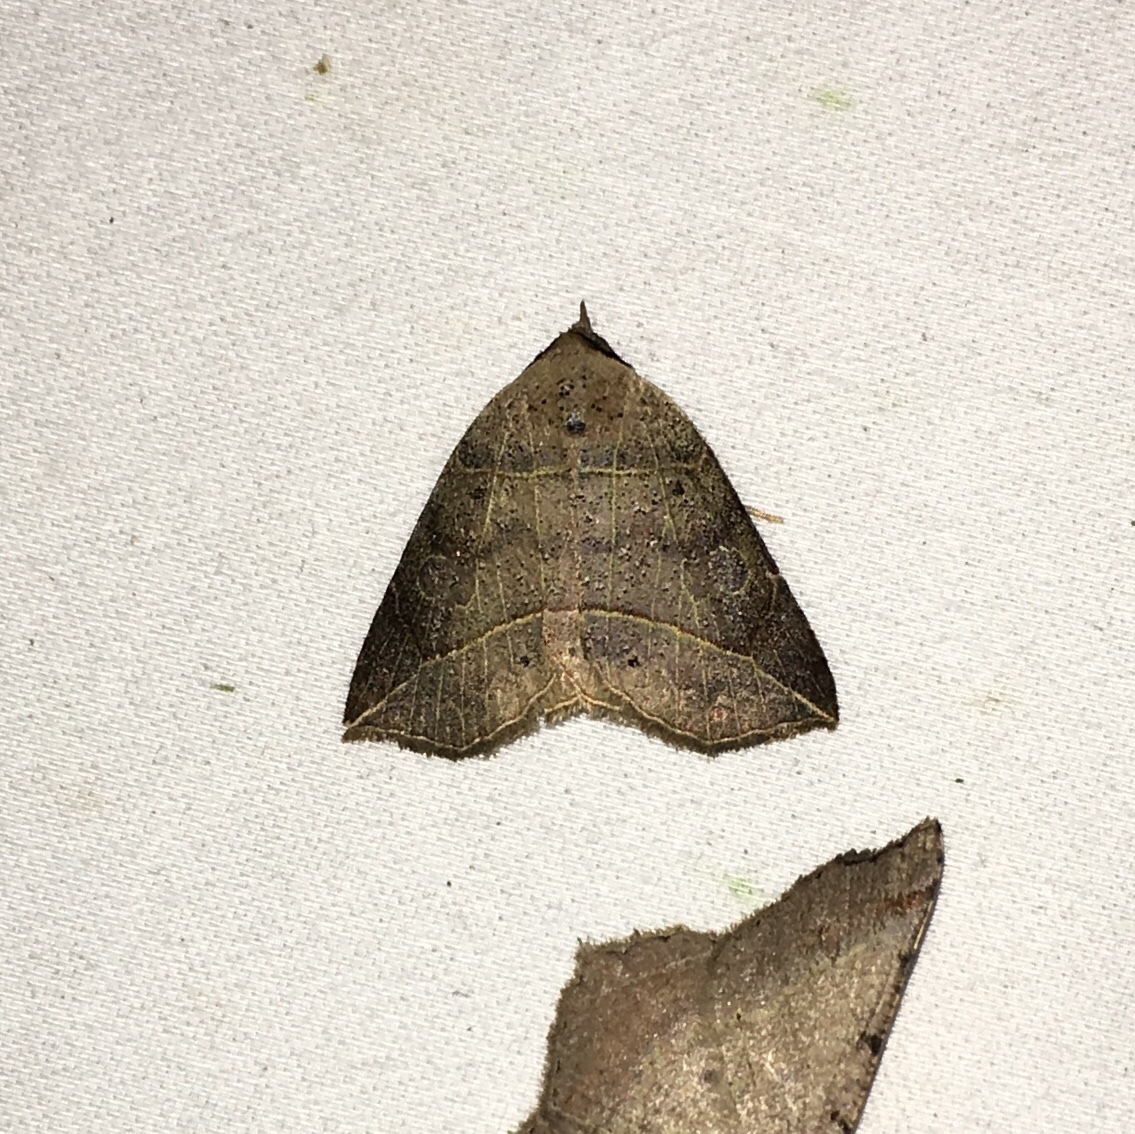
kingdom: Animalia
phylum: Arthropoda
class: Insecta
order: Lepidoptera
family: Erebidae
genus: Isogona
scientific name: Isogona tenuis
